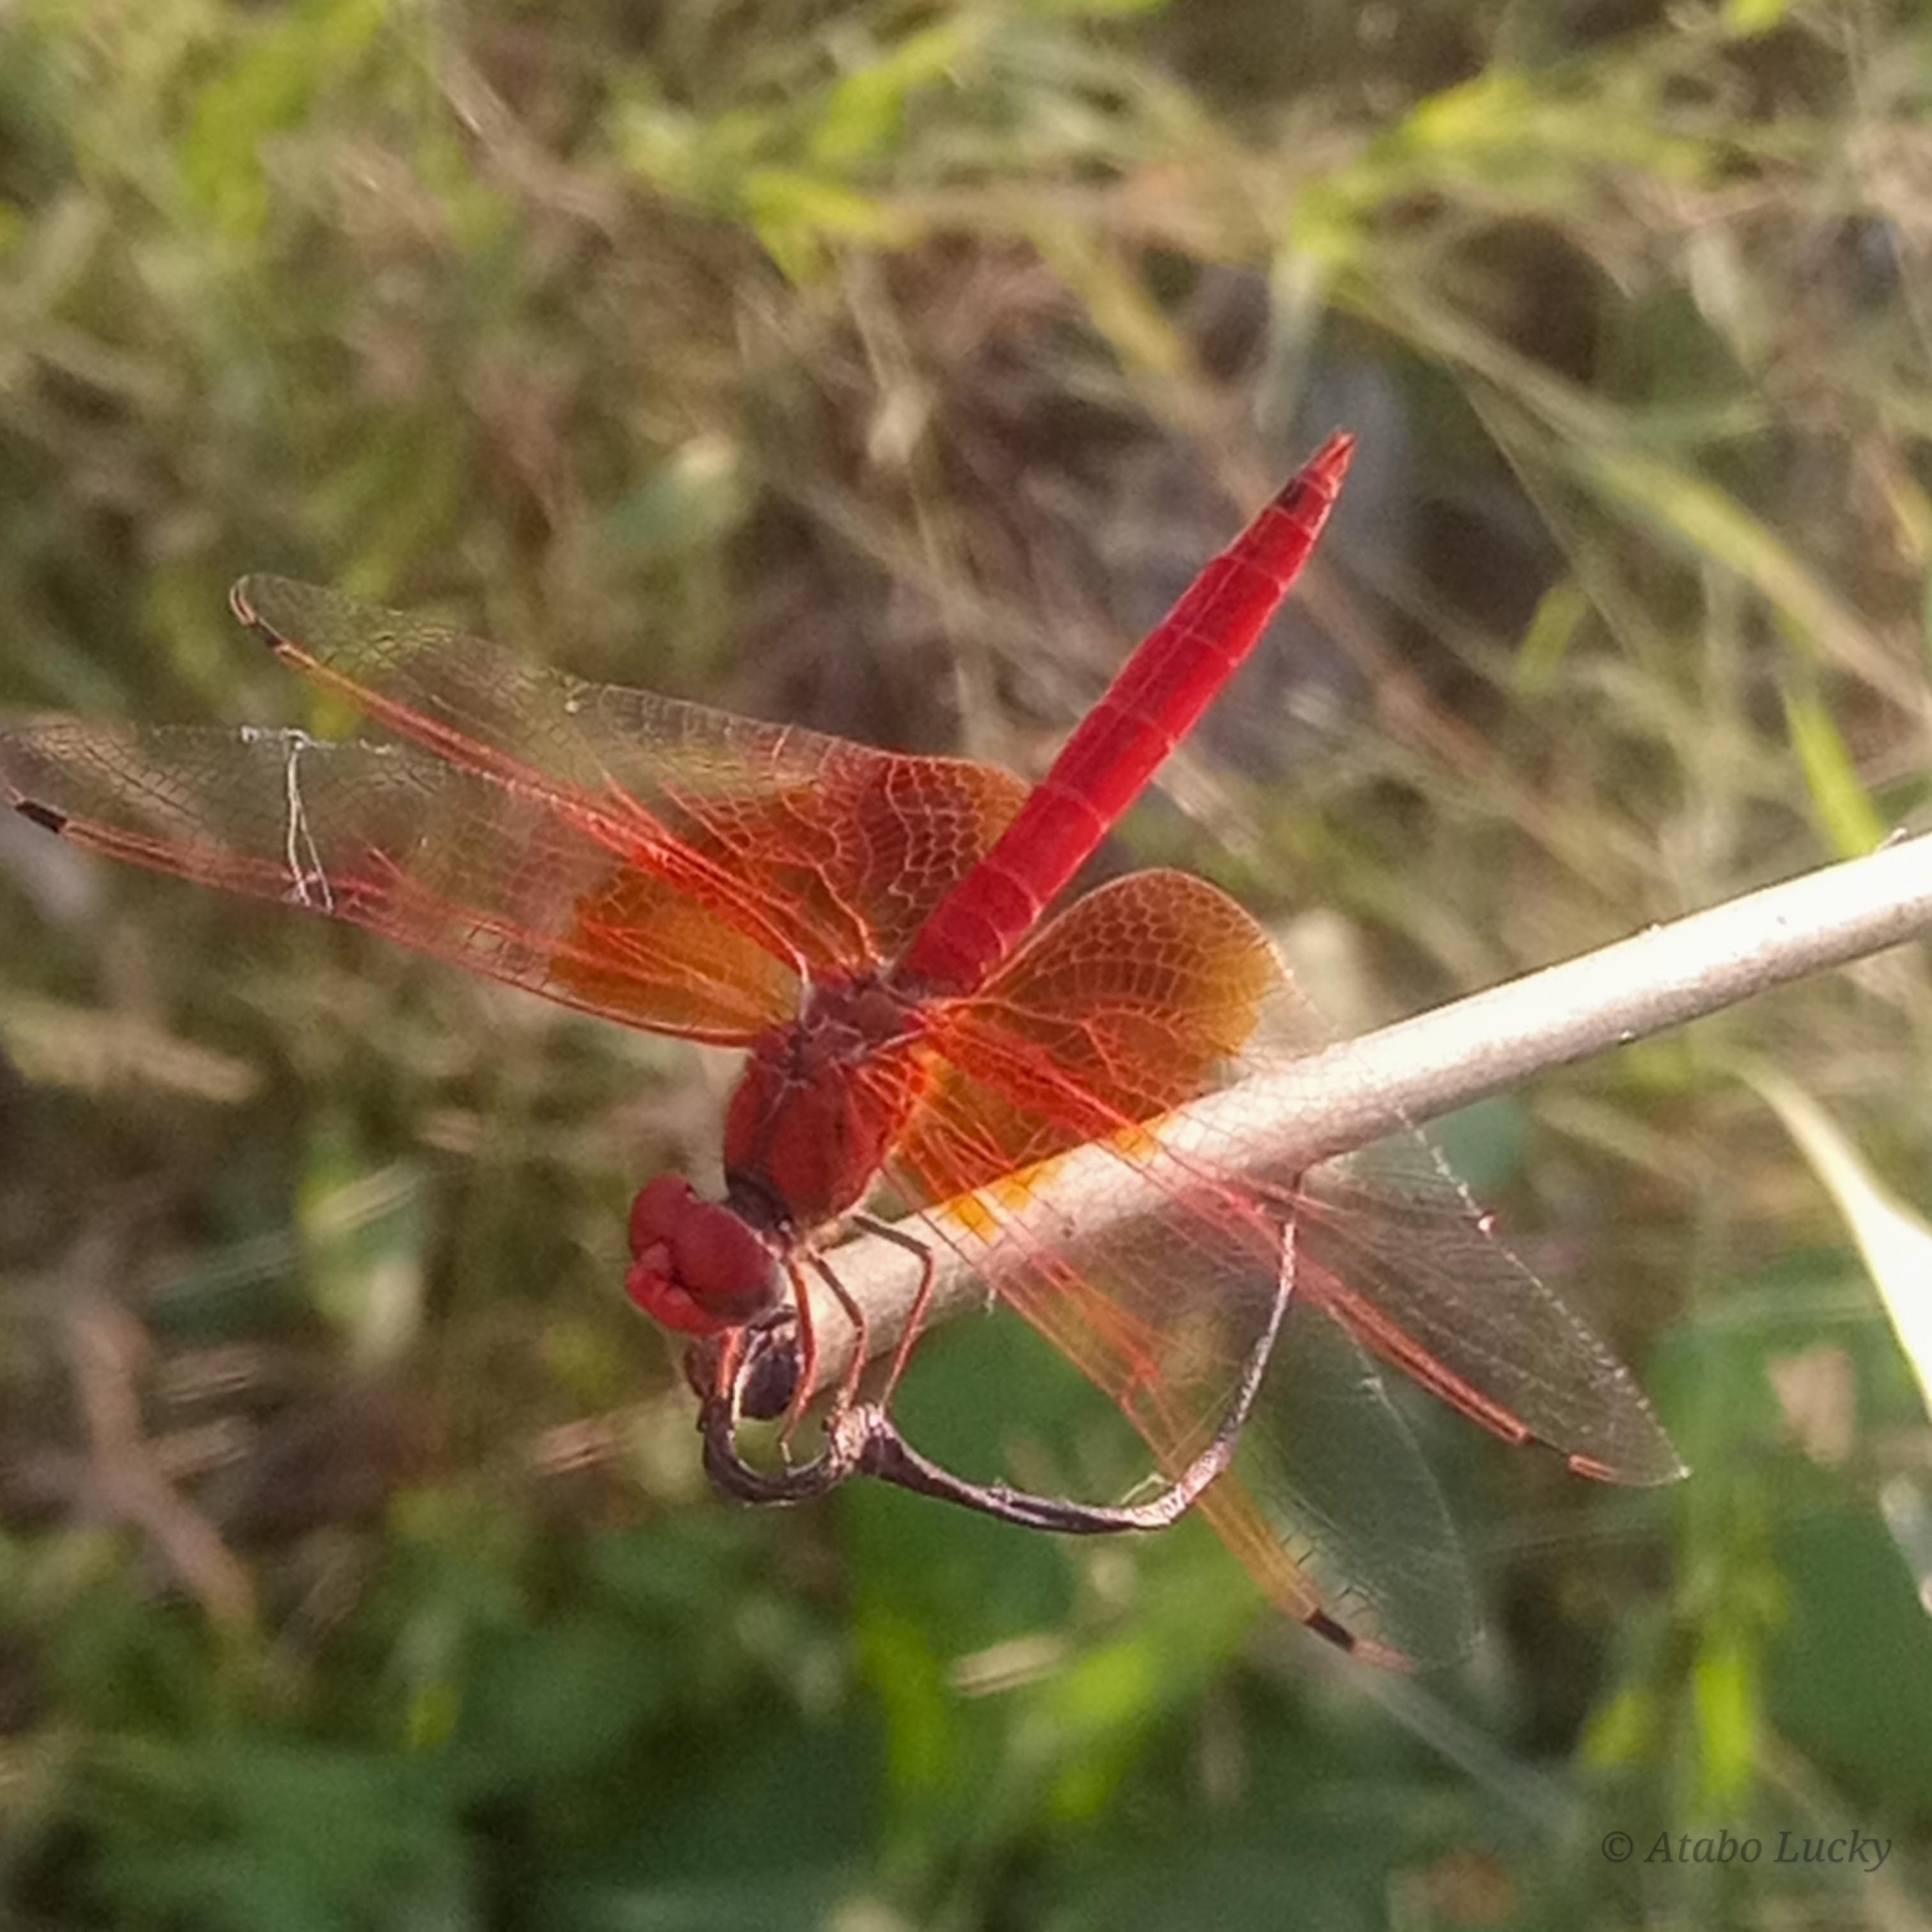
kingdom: Animalia
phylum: Arthropoda
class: Insecta
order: Odonata
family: Libellulidae
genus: Trithemis
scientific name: Trithemis kirbyi
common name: Kirby's dropwing
